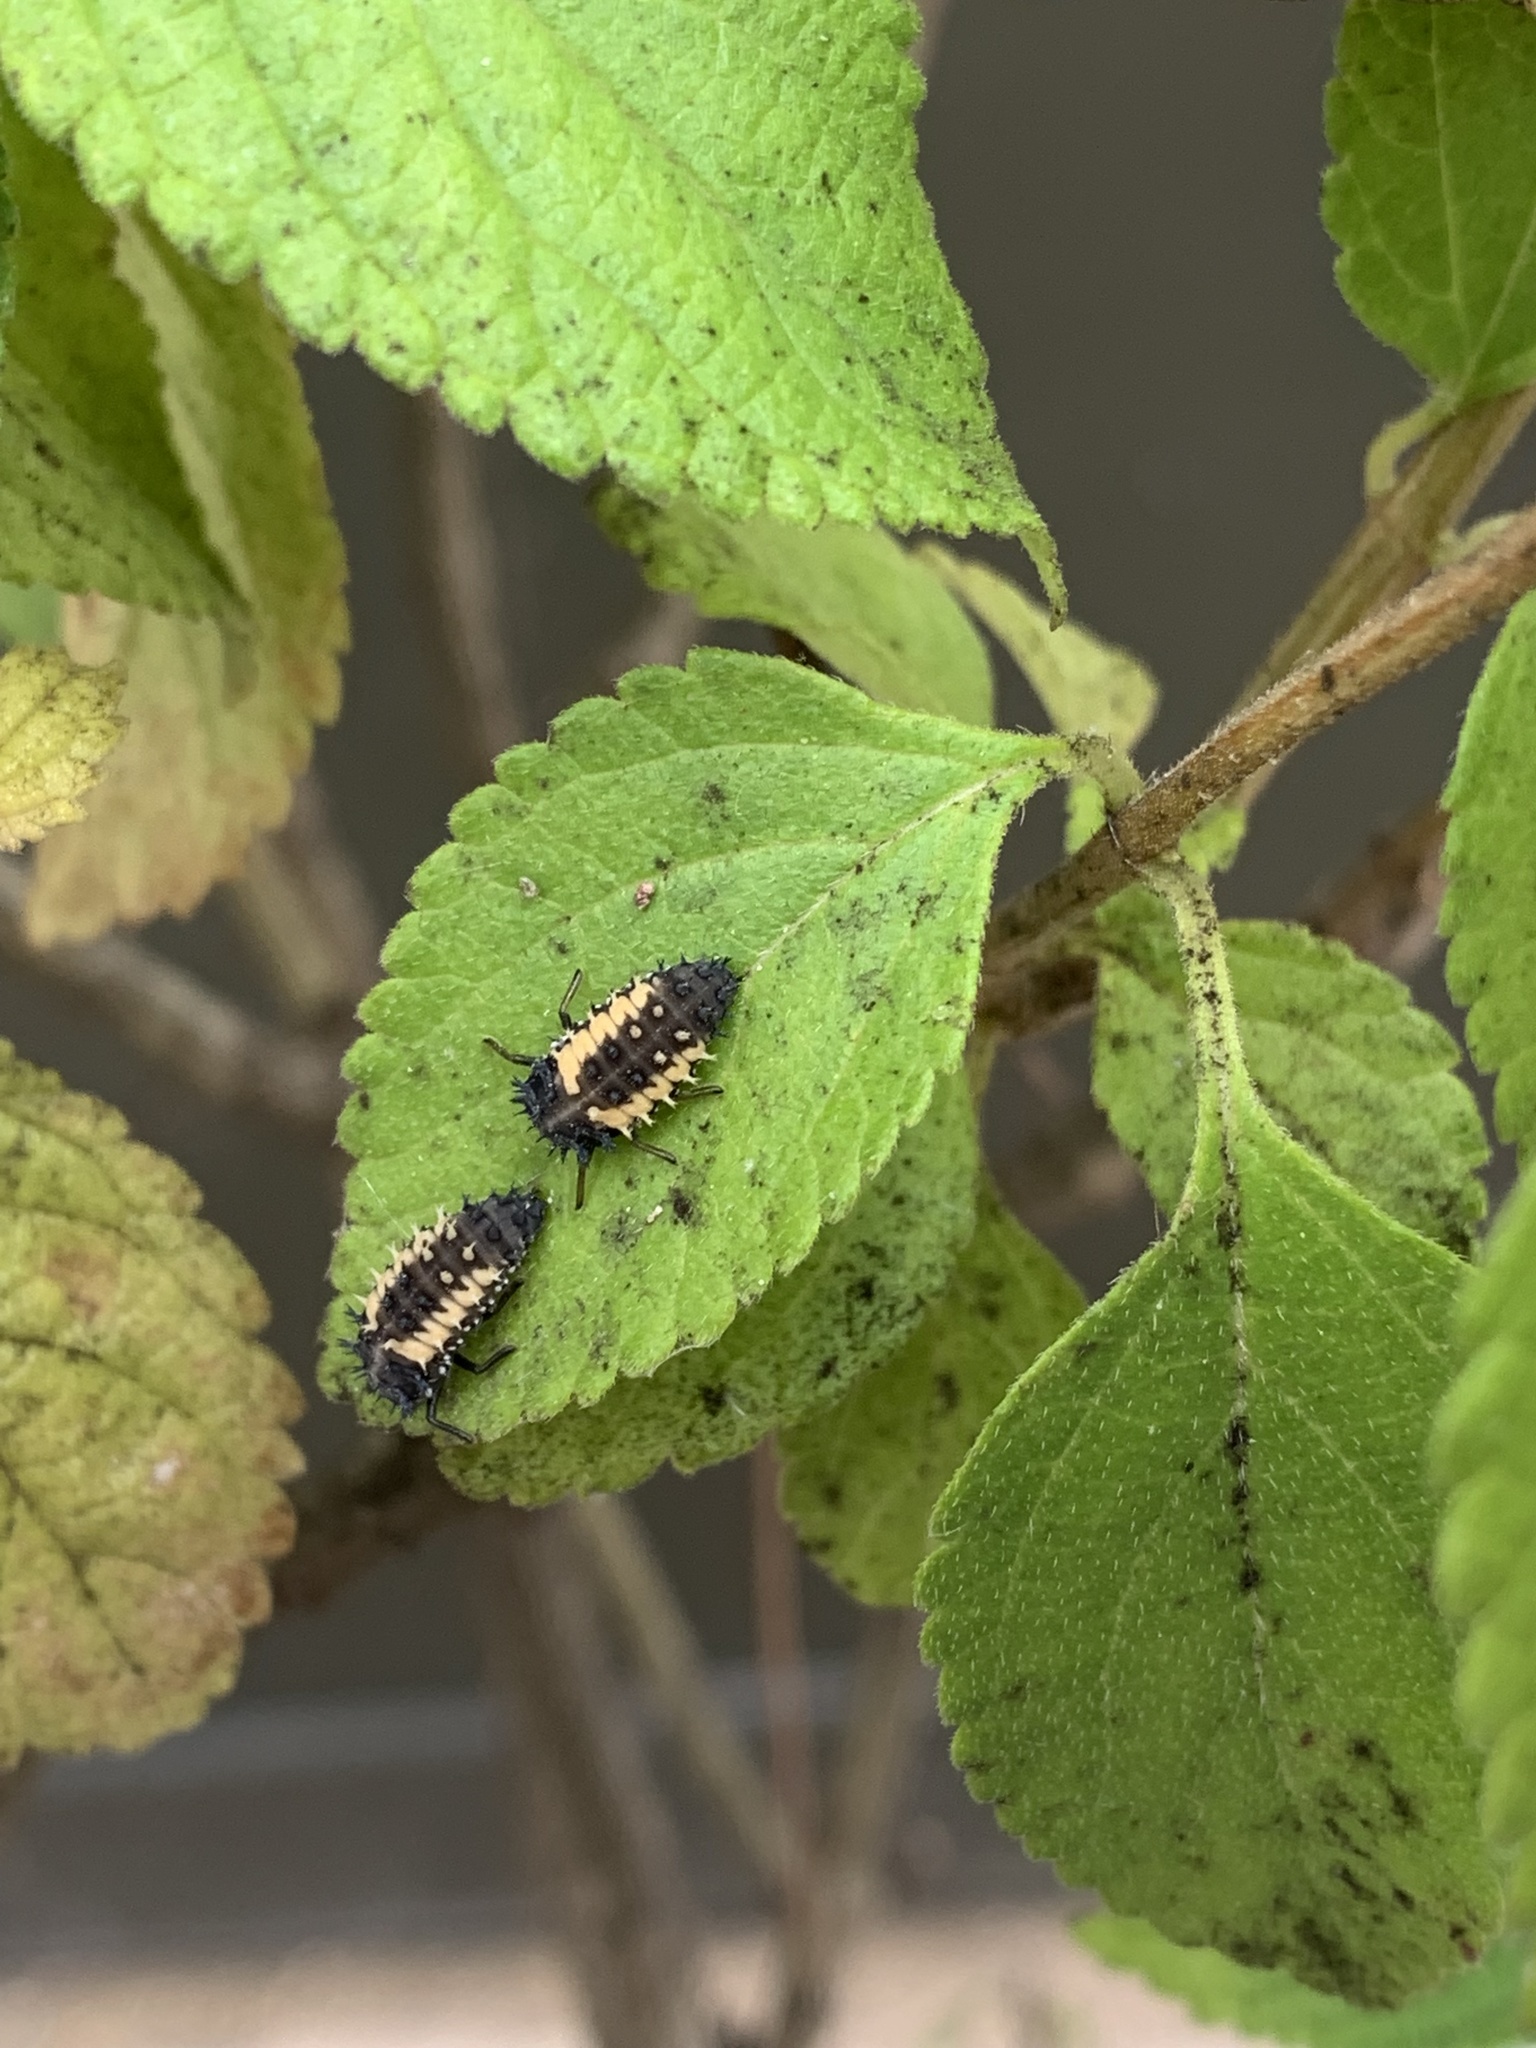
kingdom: Animalia
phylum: Arthropoda
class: Insecta
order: Coleoptera
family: Coccinellidae
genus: Harmonia
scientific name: Harmonia axyridis
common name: Harlequin ladybird
